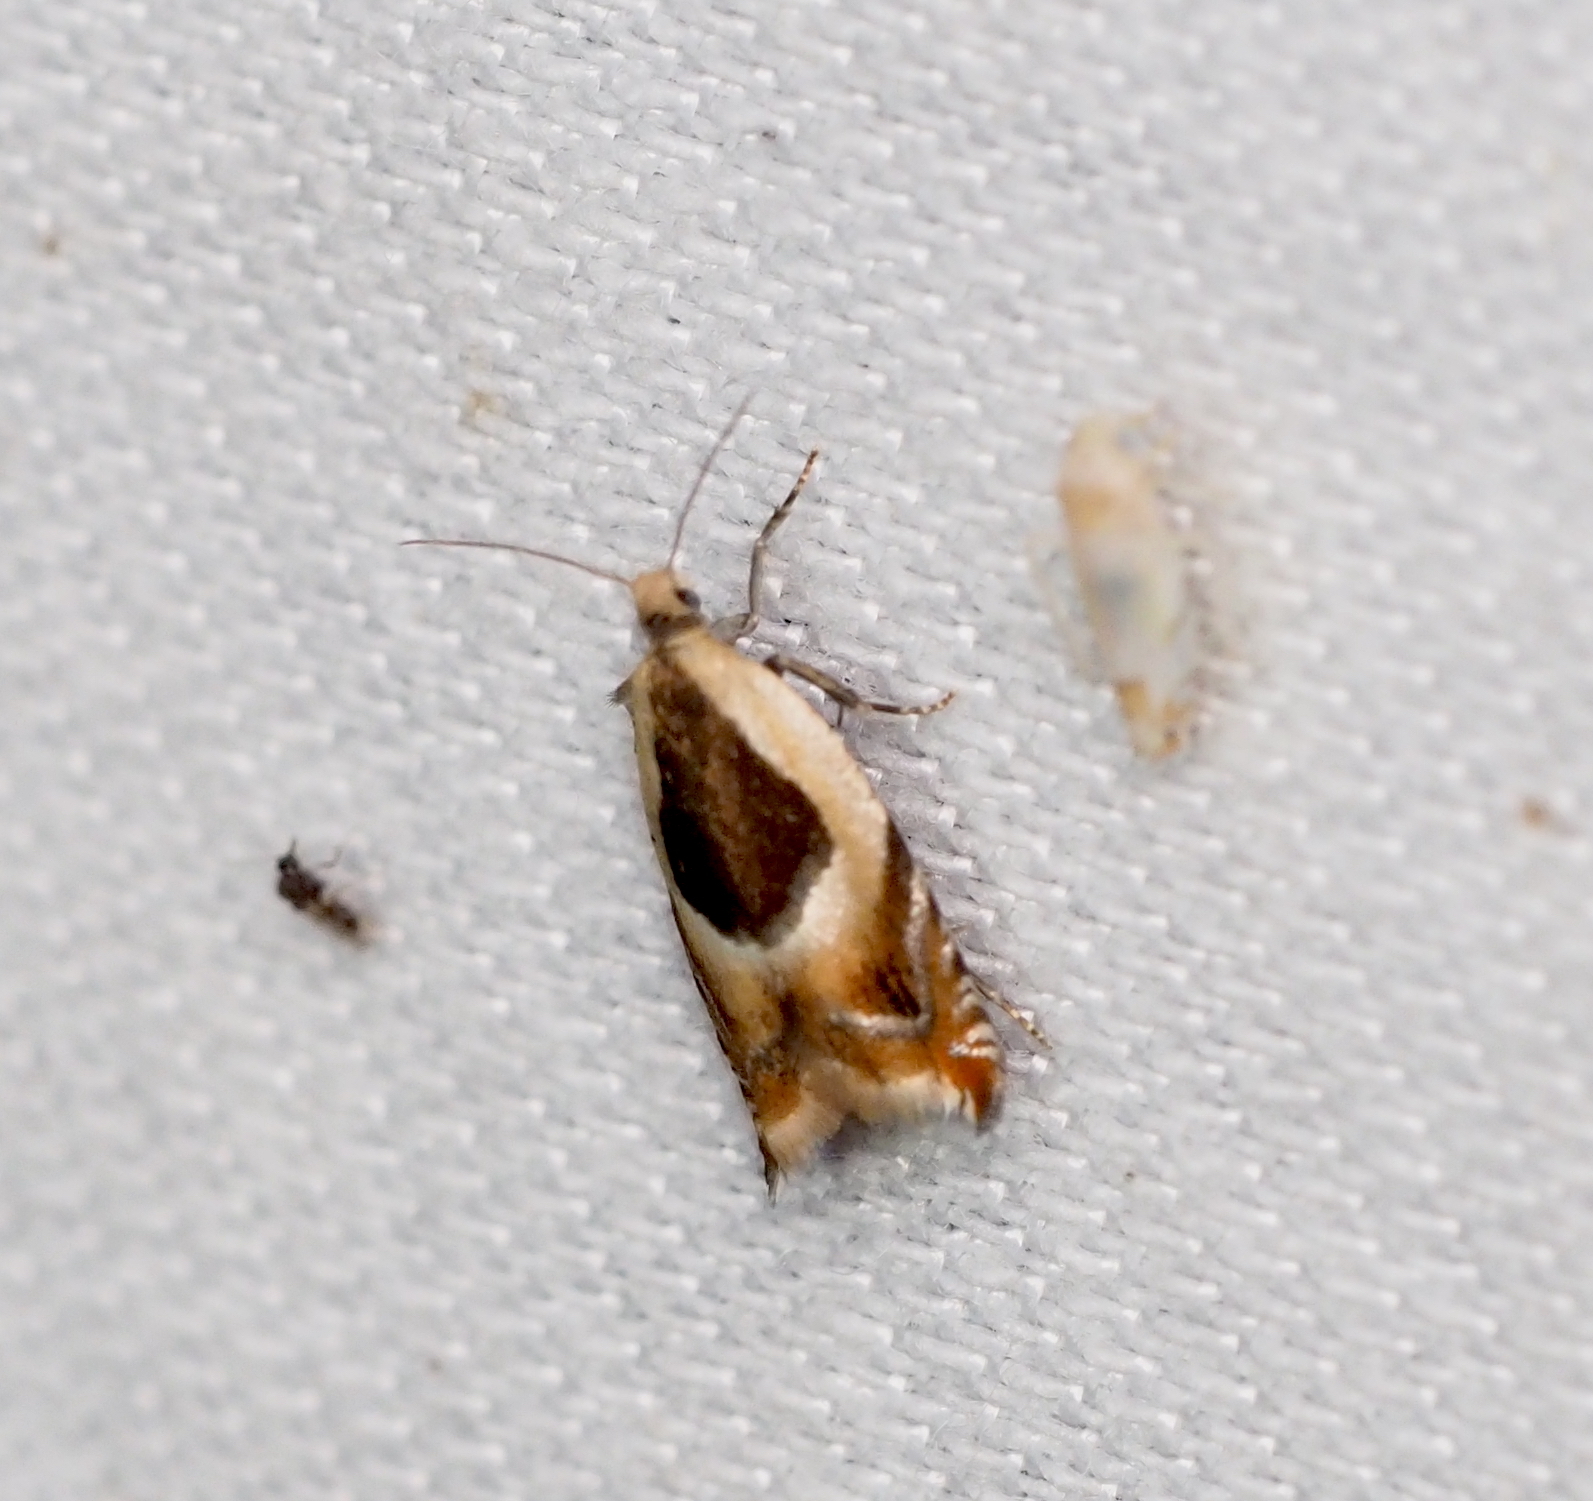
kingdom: Animalia
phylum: Arthropoda
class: Insecta
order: Lepidoptera
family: Tortricidae
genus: Ancylis
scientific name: Ancylis badiana
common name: Common roller
